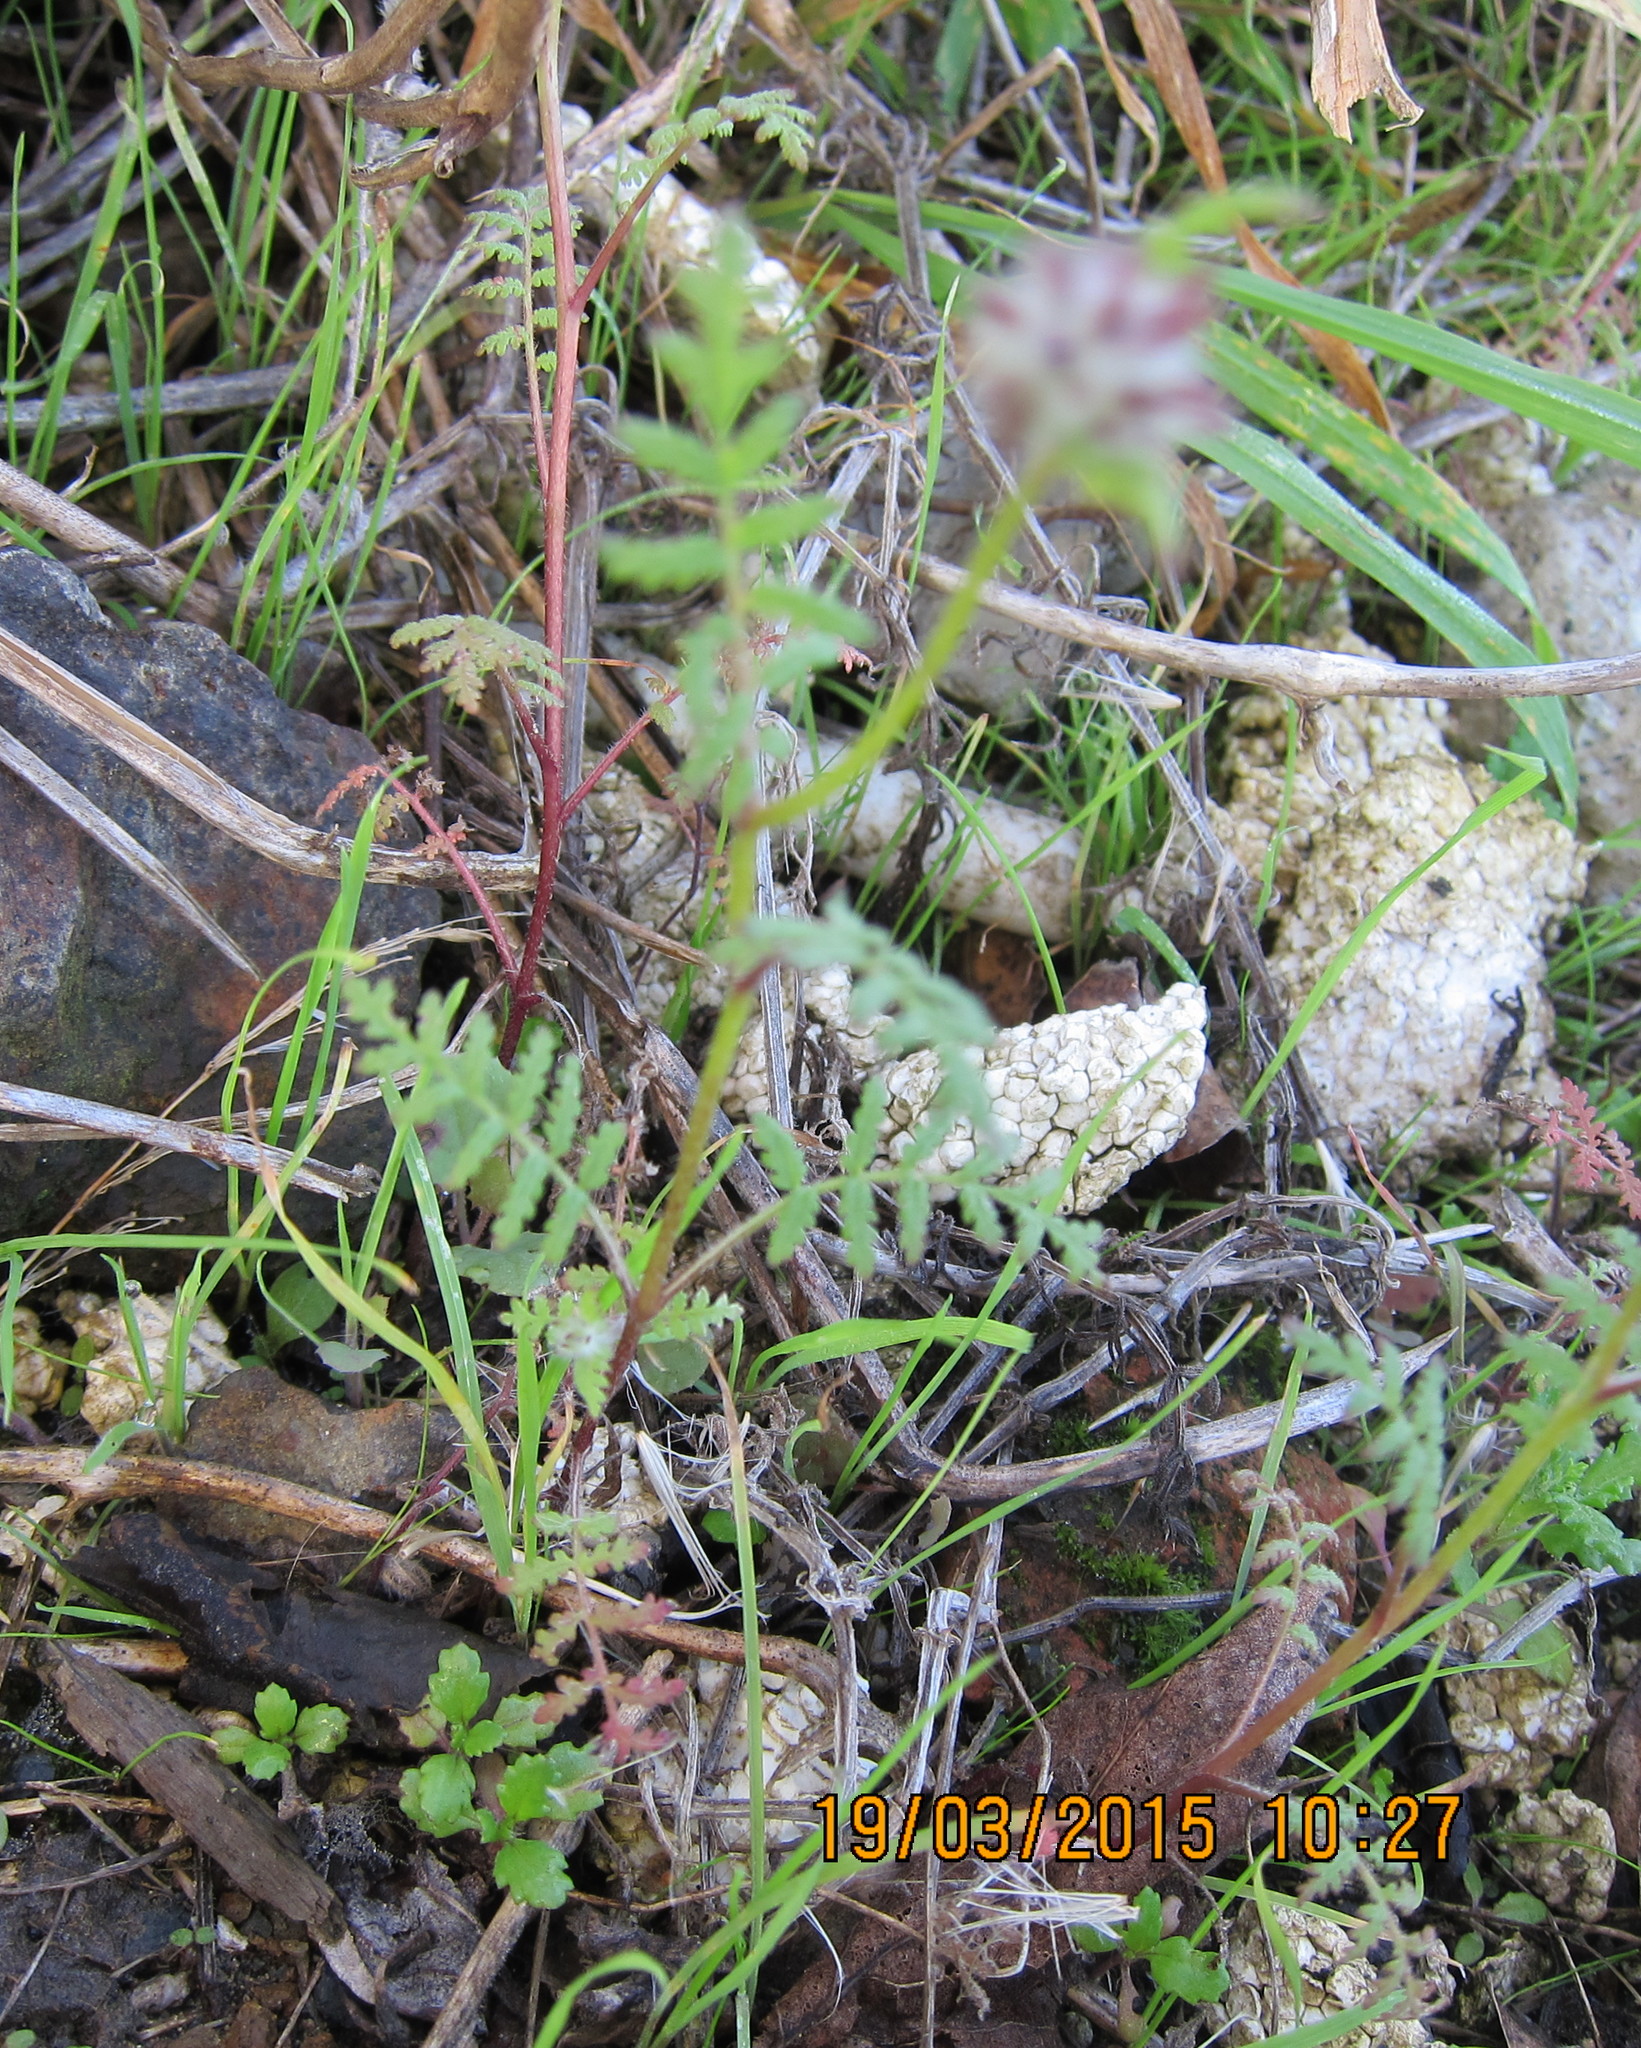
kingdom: Plantae
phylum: Tracheophyta
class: Magnoliopsida
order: Boraginales
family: Hydrophyllaceae
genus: Phacelia
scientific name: Phacelia tanacetifolia
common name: Phacelia
